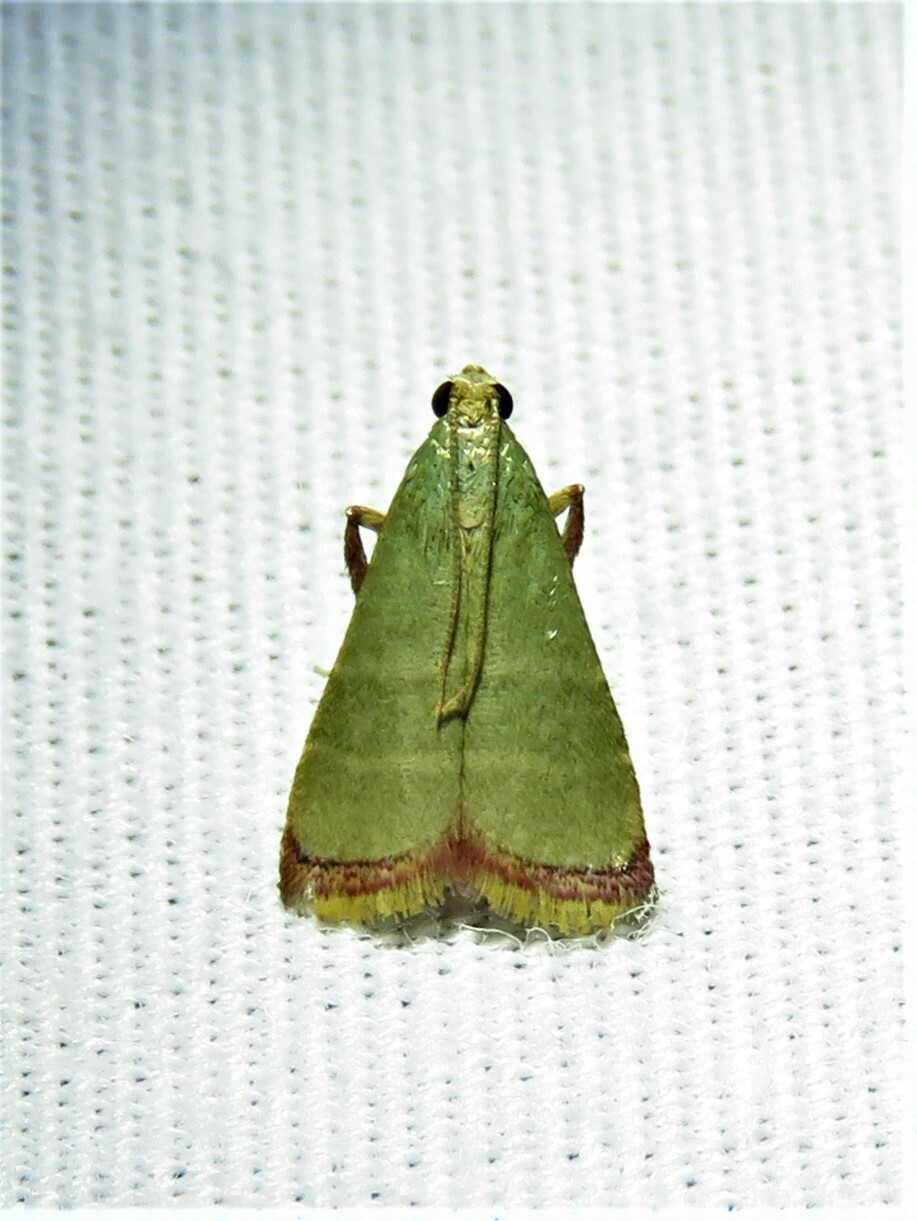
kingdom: Animalia
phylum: Arthropoda
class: Insecta
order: Lepidoptera
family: Pyralidae
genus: Arta
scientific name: Arta olivalis
